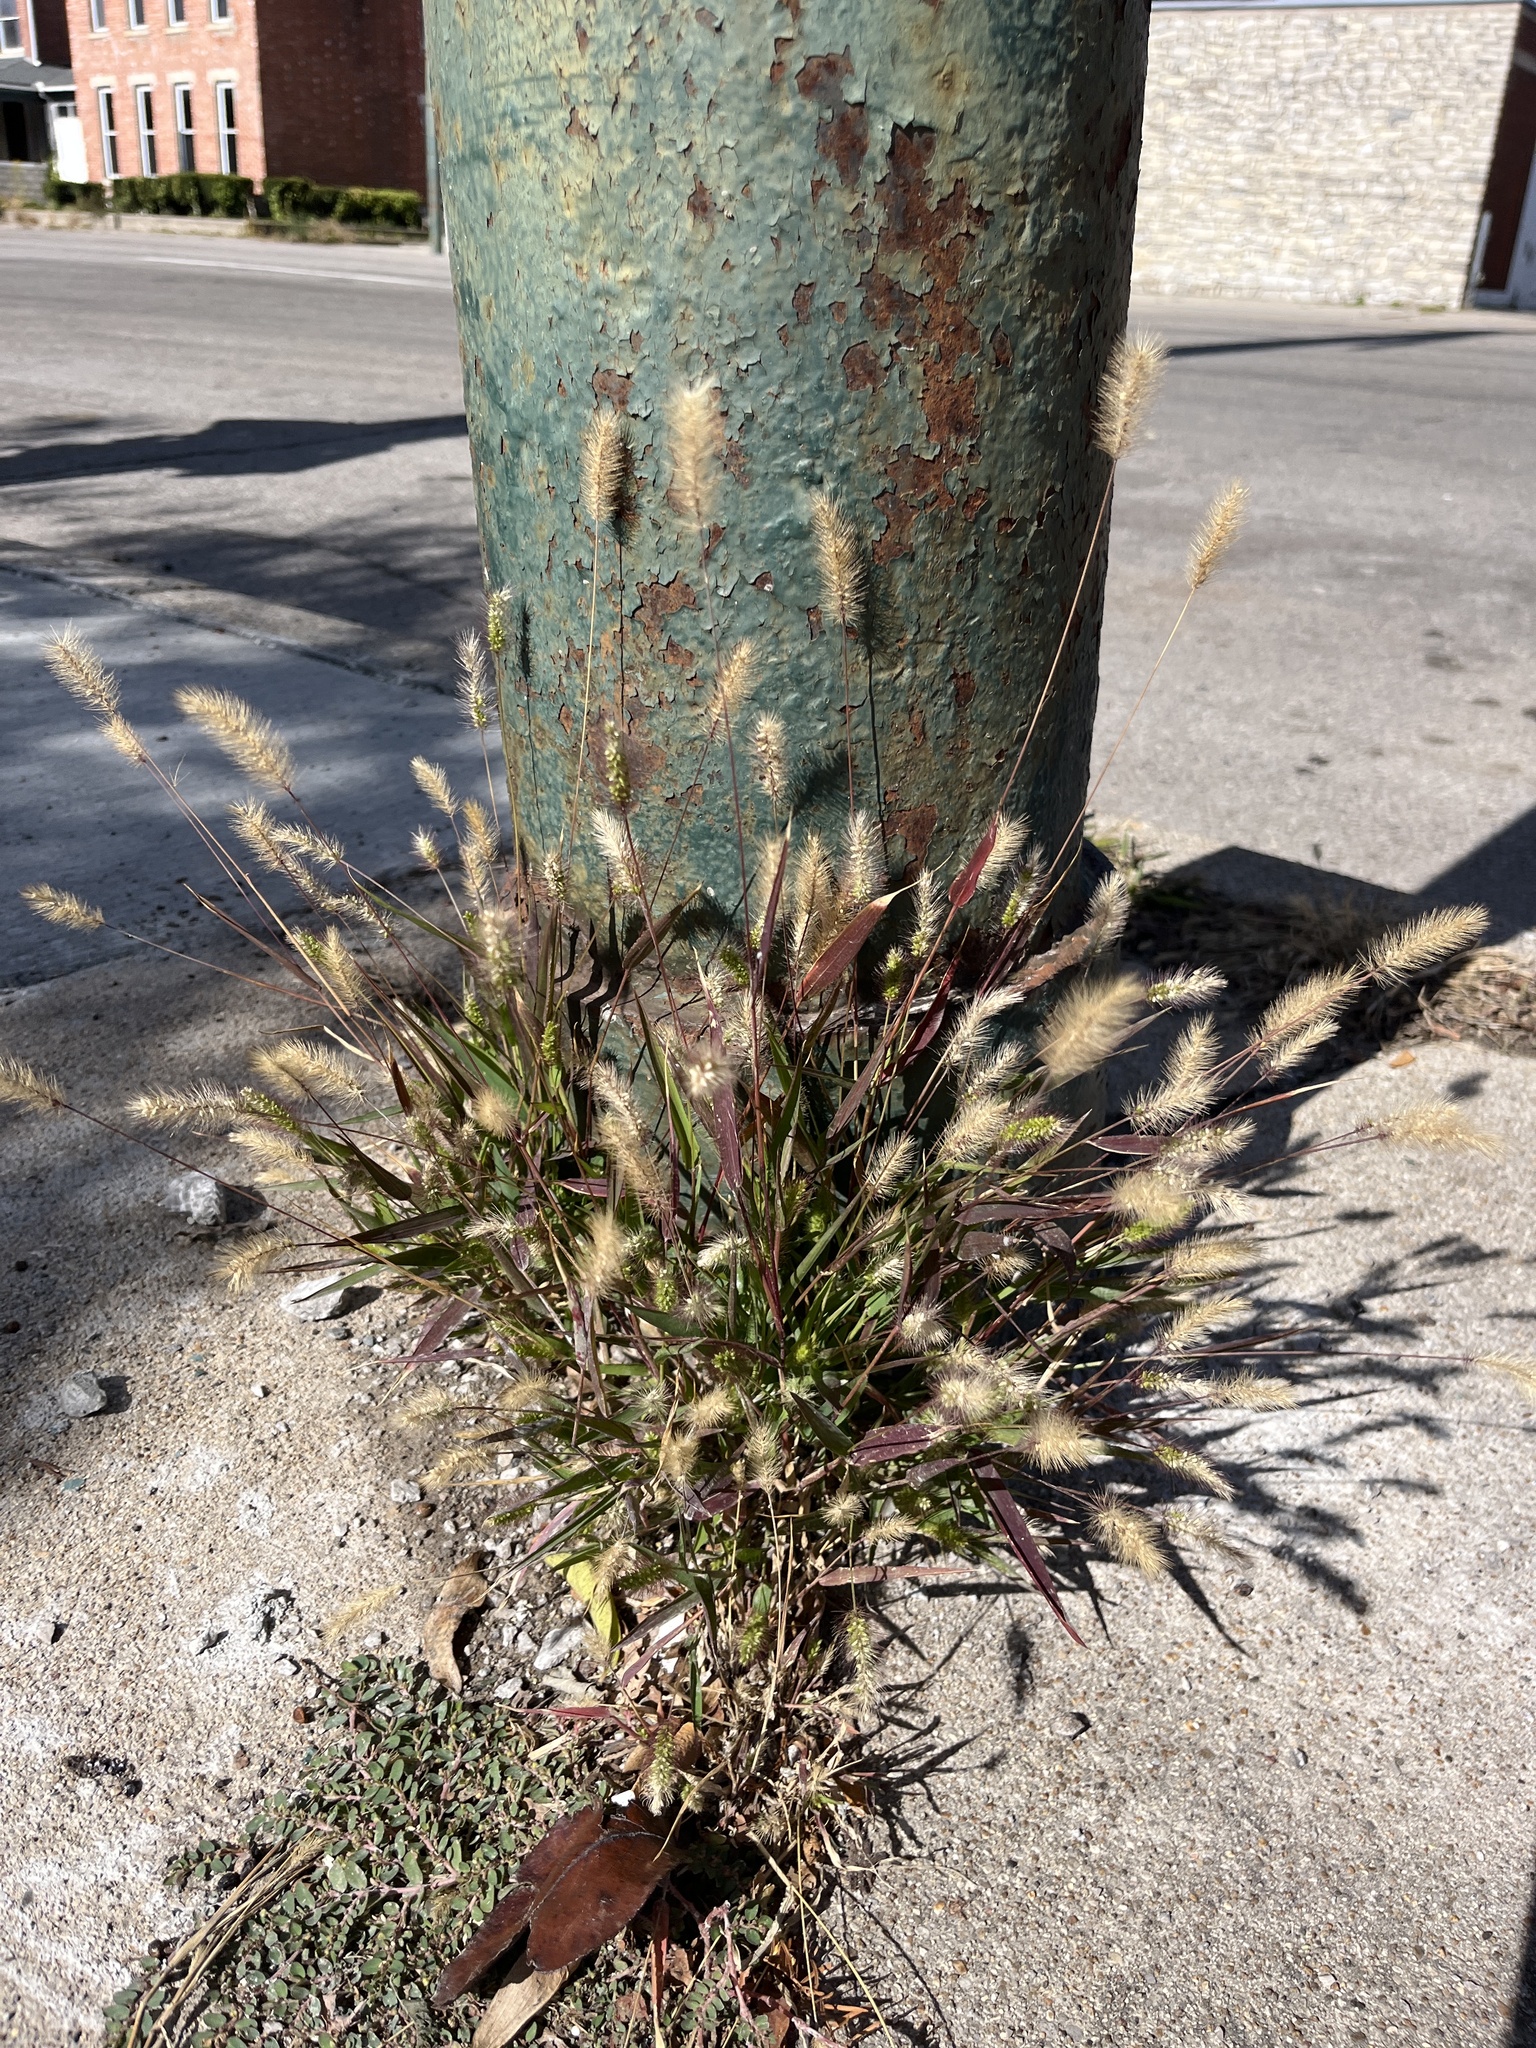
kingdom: Plantae
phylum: Tracheophyta
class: Liliopsida
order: Poales
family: Poaceae
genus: Setaria
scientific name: Setaria viridis
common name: Green bristlegrass
